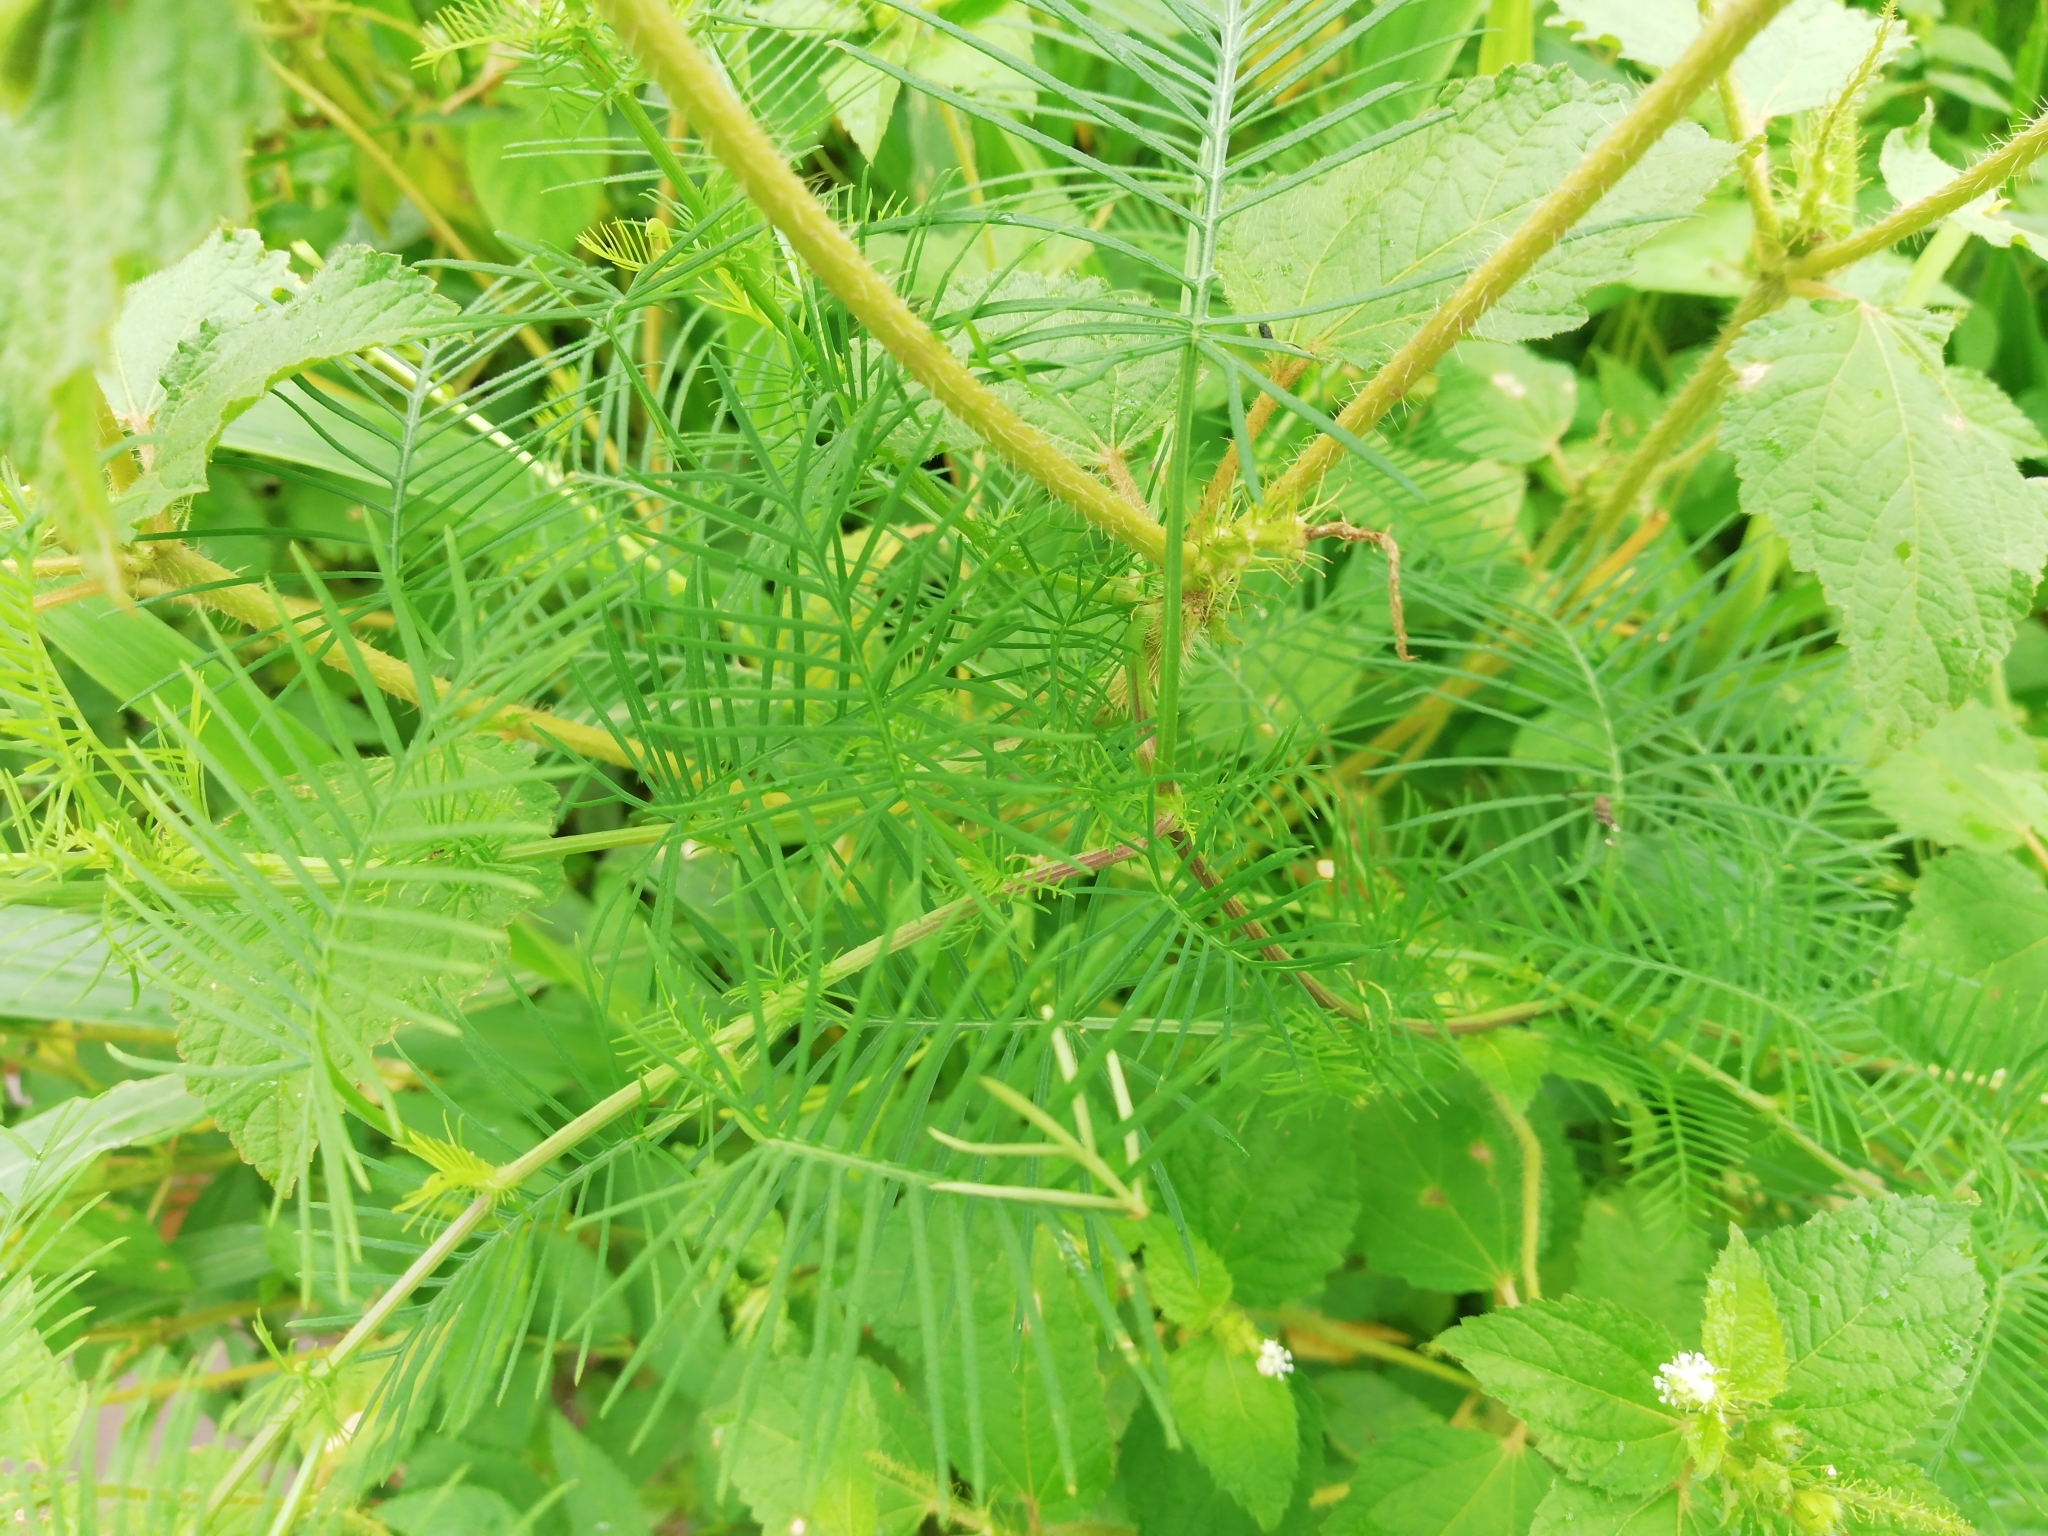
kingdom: Plantae
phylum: Tracheophyta
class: Magnoliopsida
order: Solanales
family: Convolvulaceae
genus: Ipomoea
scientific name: Ipomoea quamoclit
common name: Cypress vine
